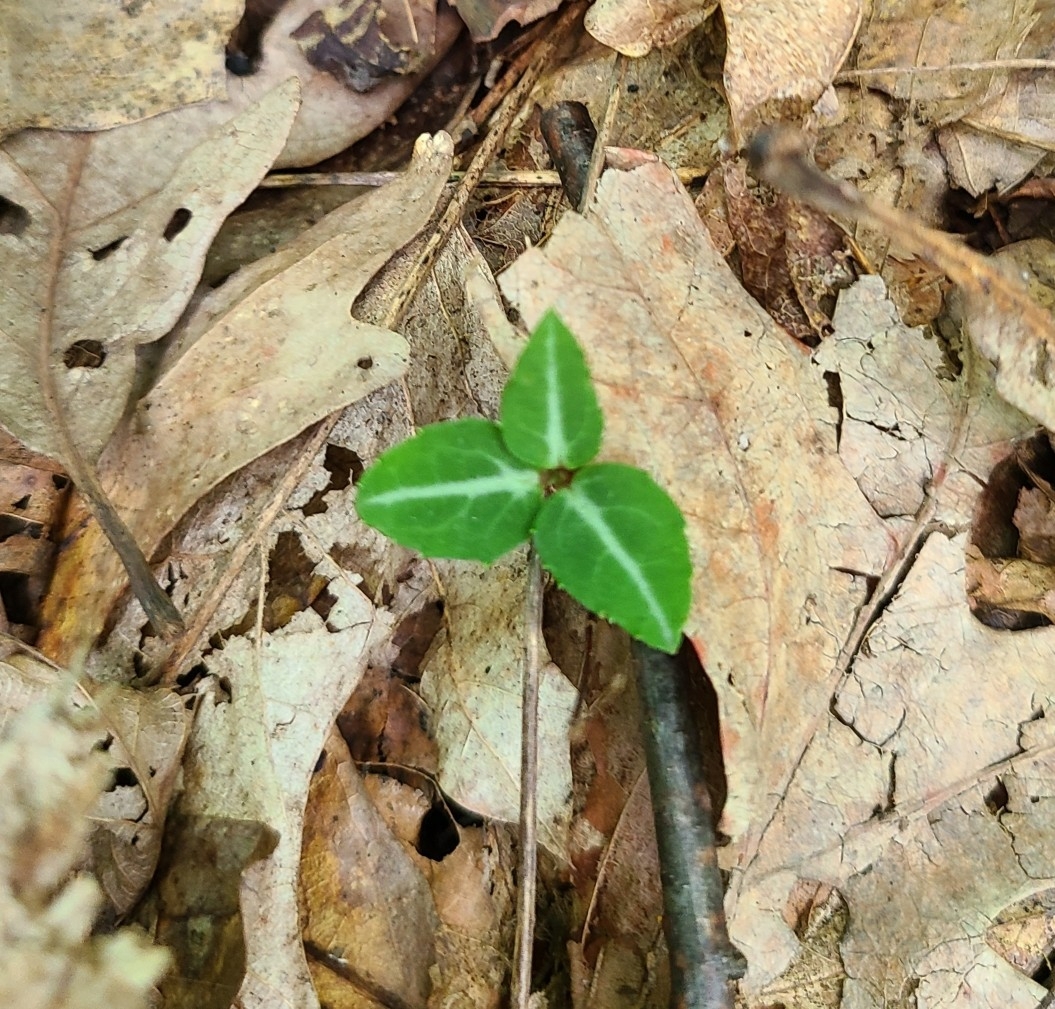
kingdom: Plantae
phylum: Tracheophyta
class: Magnoliopsida
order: Ericales
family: Ericaceae
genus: Chimaphila
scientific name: Chimaphila maculata
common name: Spotted pipsissewa
